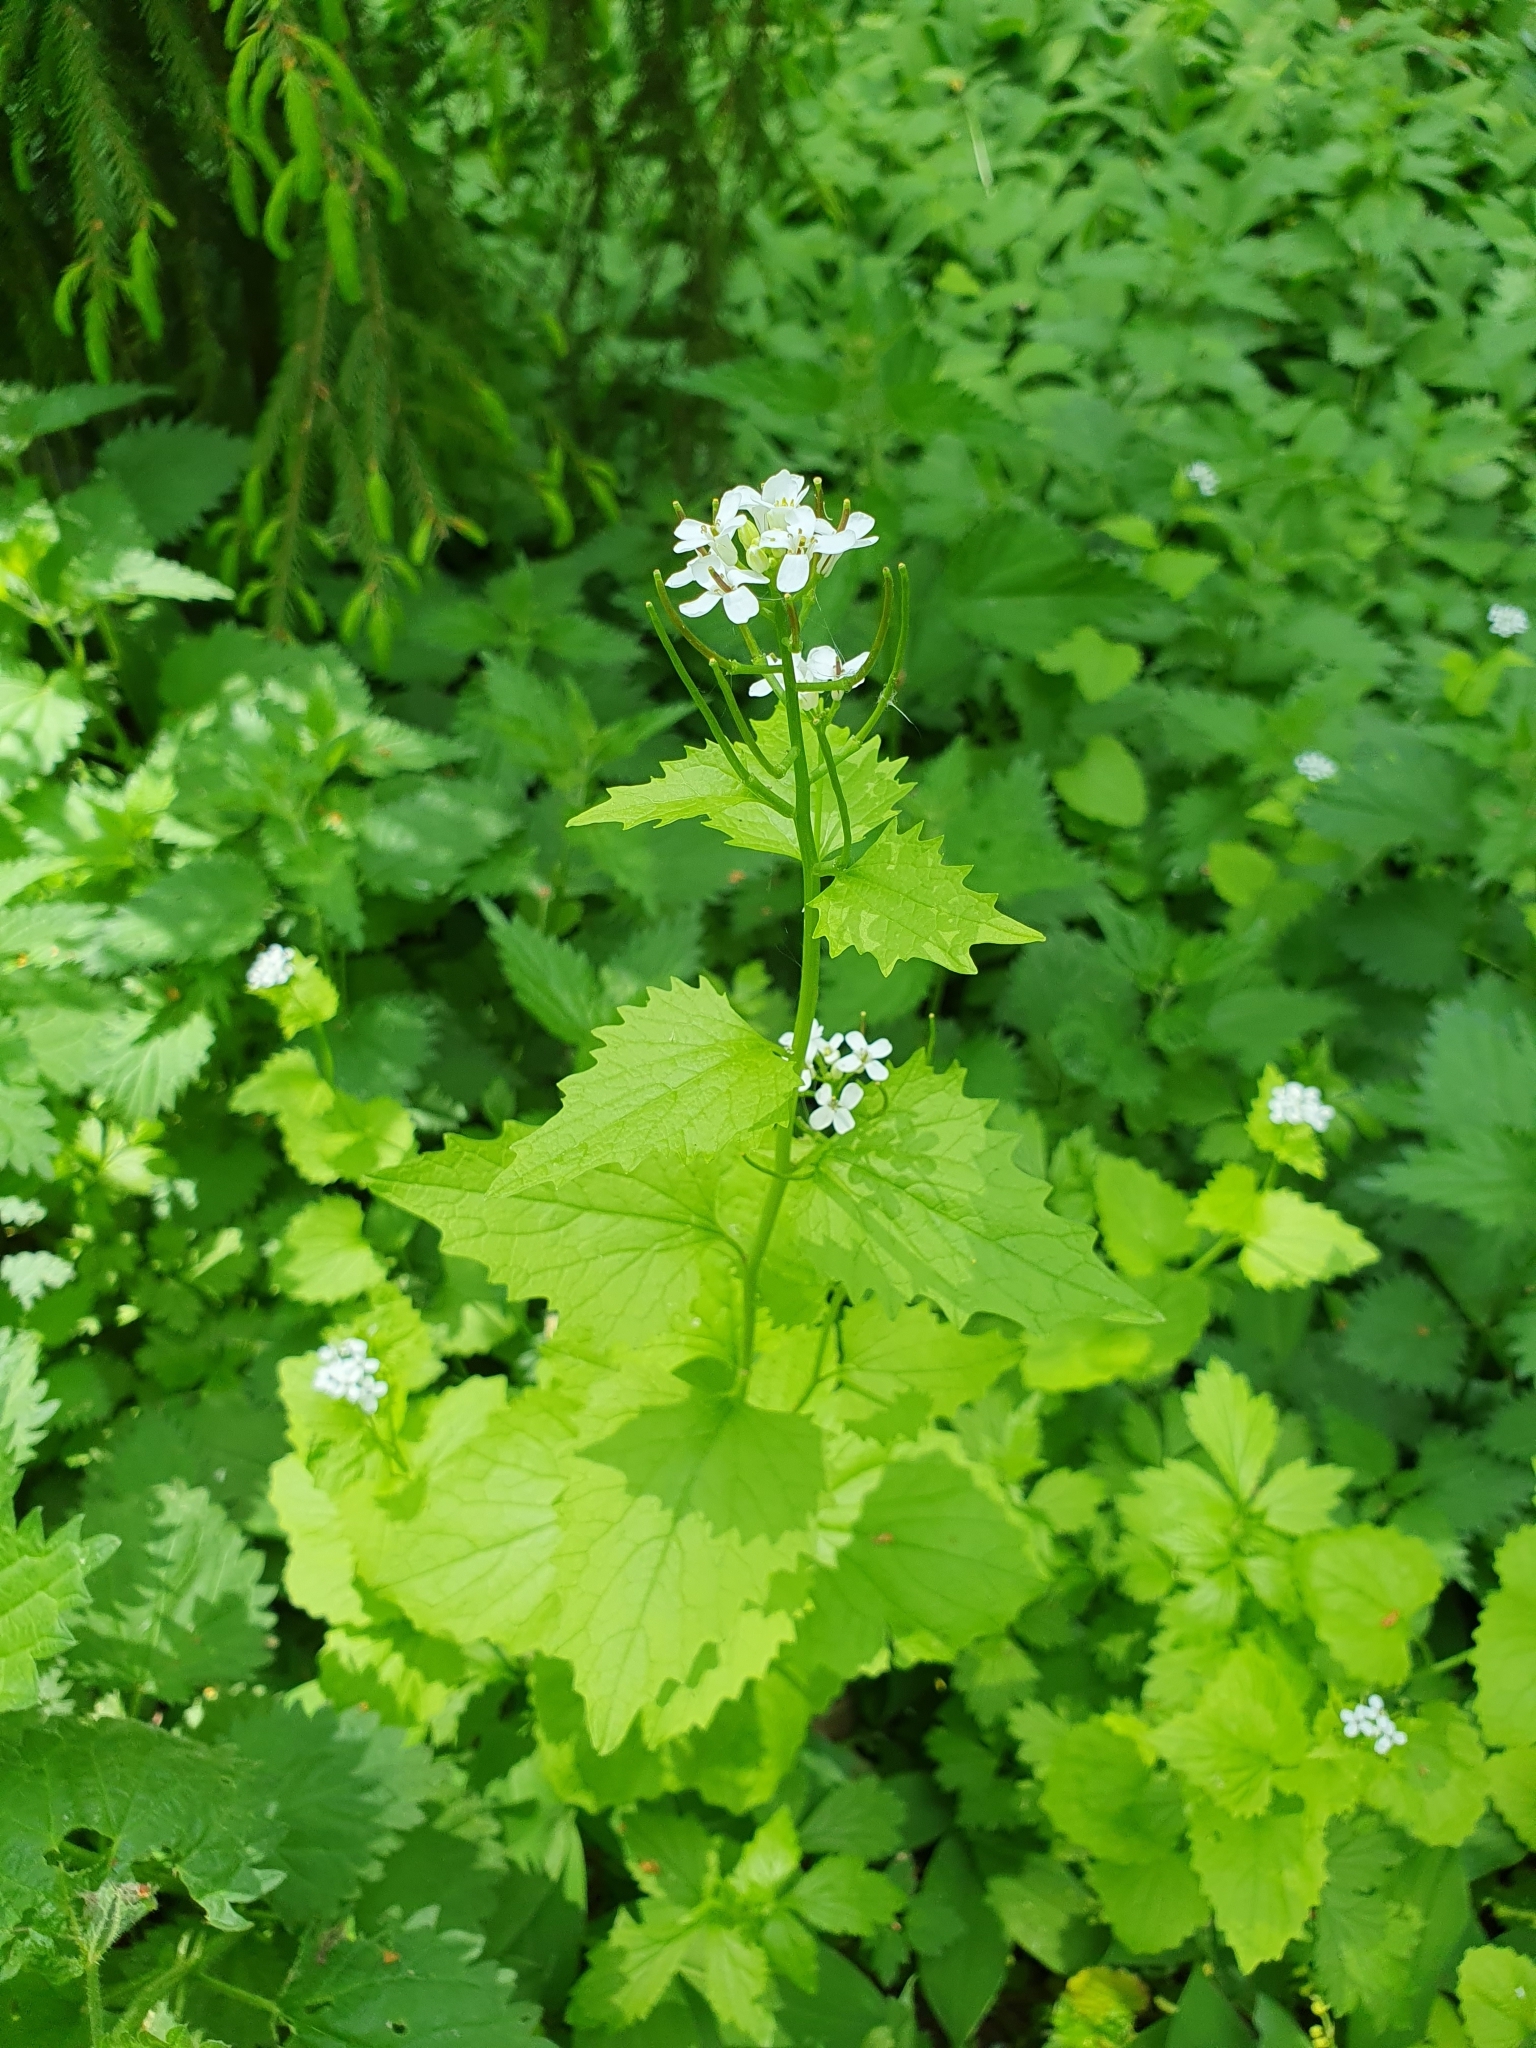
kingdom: Plantae
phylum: Tracheophyta
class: Magnoliopsida
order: Brassicales
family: Brassicaceae
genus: Alliaria
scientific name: Alliaria petiolata
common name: Garlic mustard
